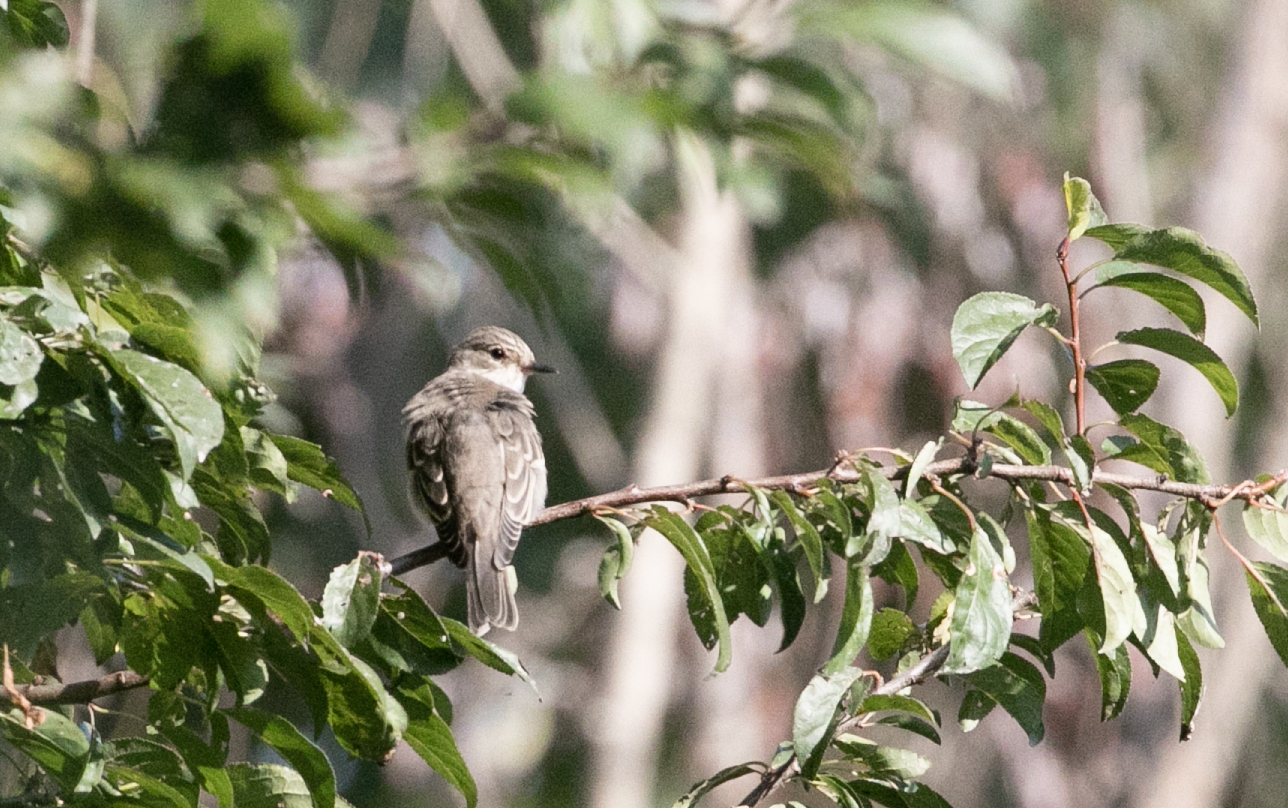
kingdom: Animalia
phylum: Chordata
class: Aves
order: Passeriformes
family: Muscicapidae
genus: Muscicapa
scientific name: Muscicapa striata
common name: Spotted flycatcher
